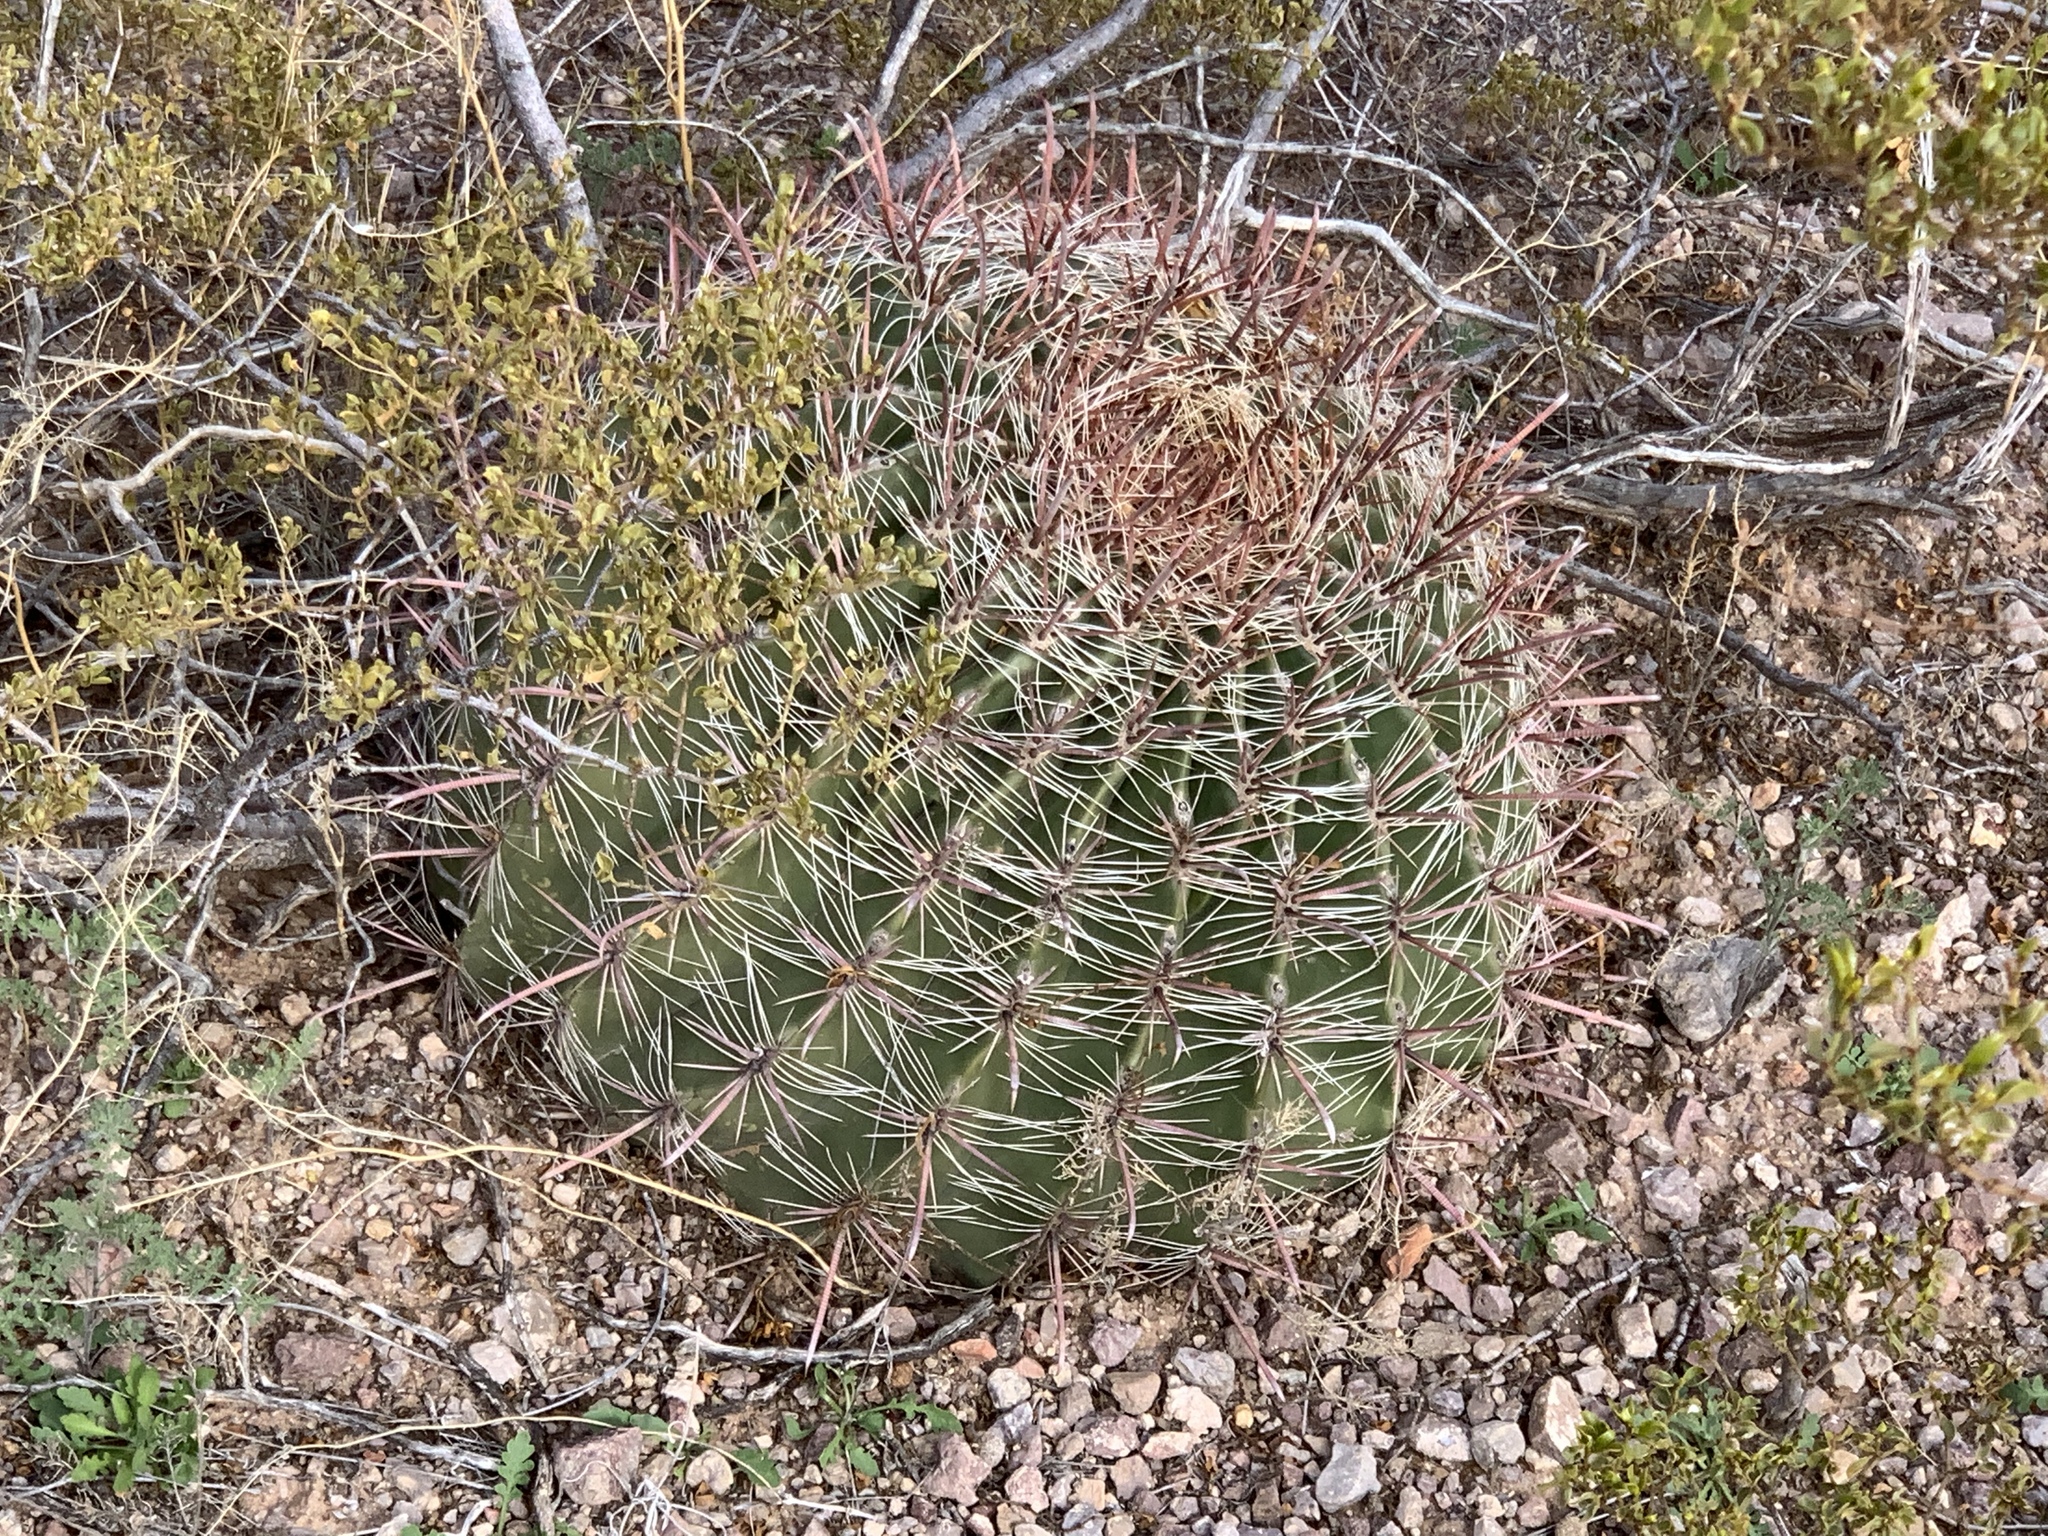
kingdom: Plantae
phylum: Tracheophyta
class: Magnoliopsida
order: Caryophyllales
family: Cactaceae
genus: Ferocactus
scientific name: Ferocactus wislizeni
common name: Candy barrel cactus
